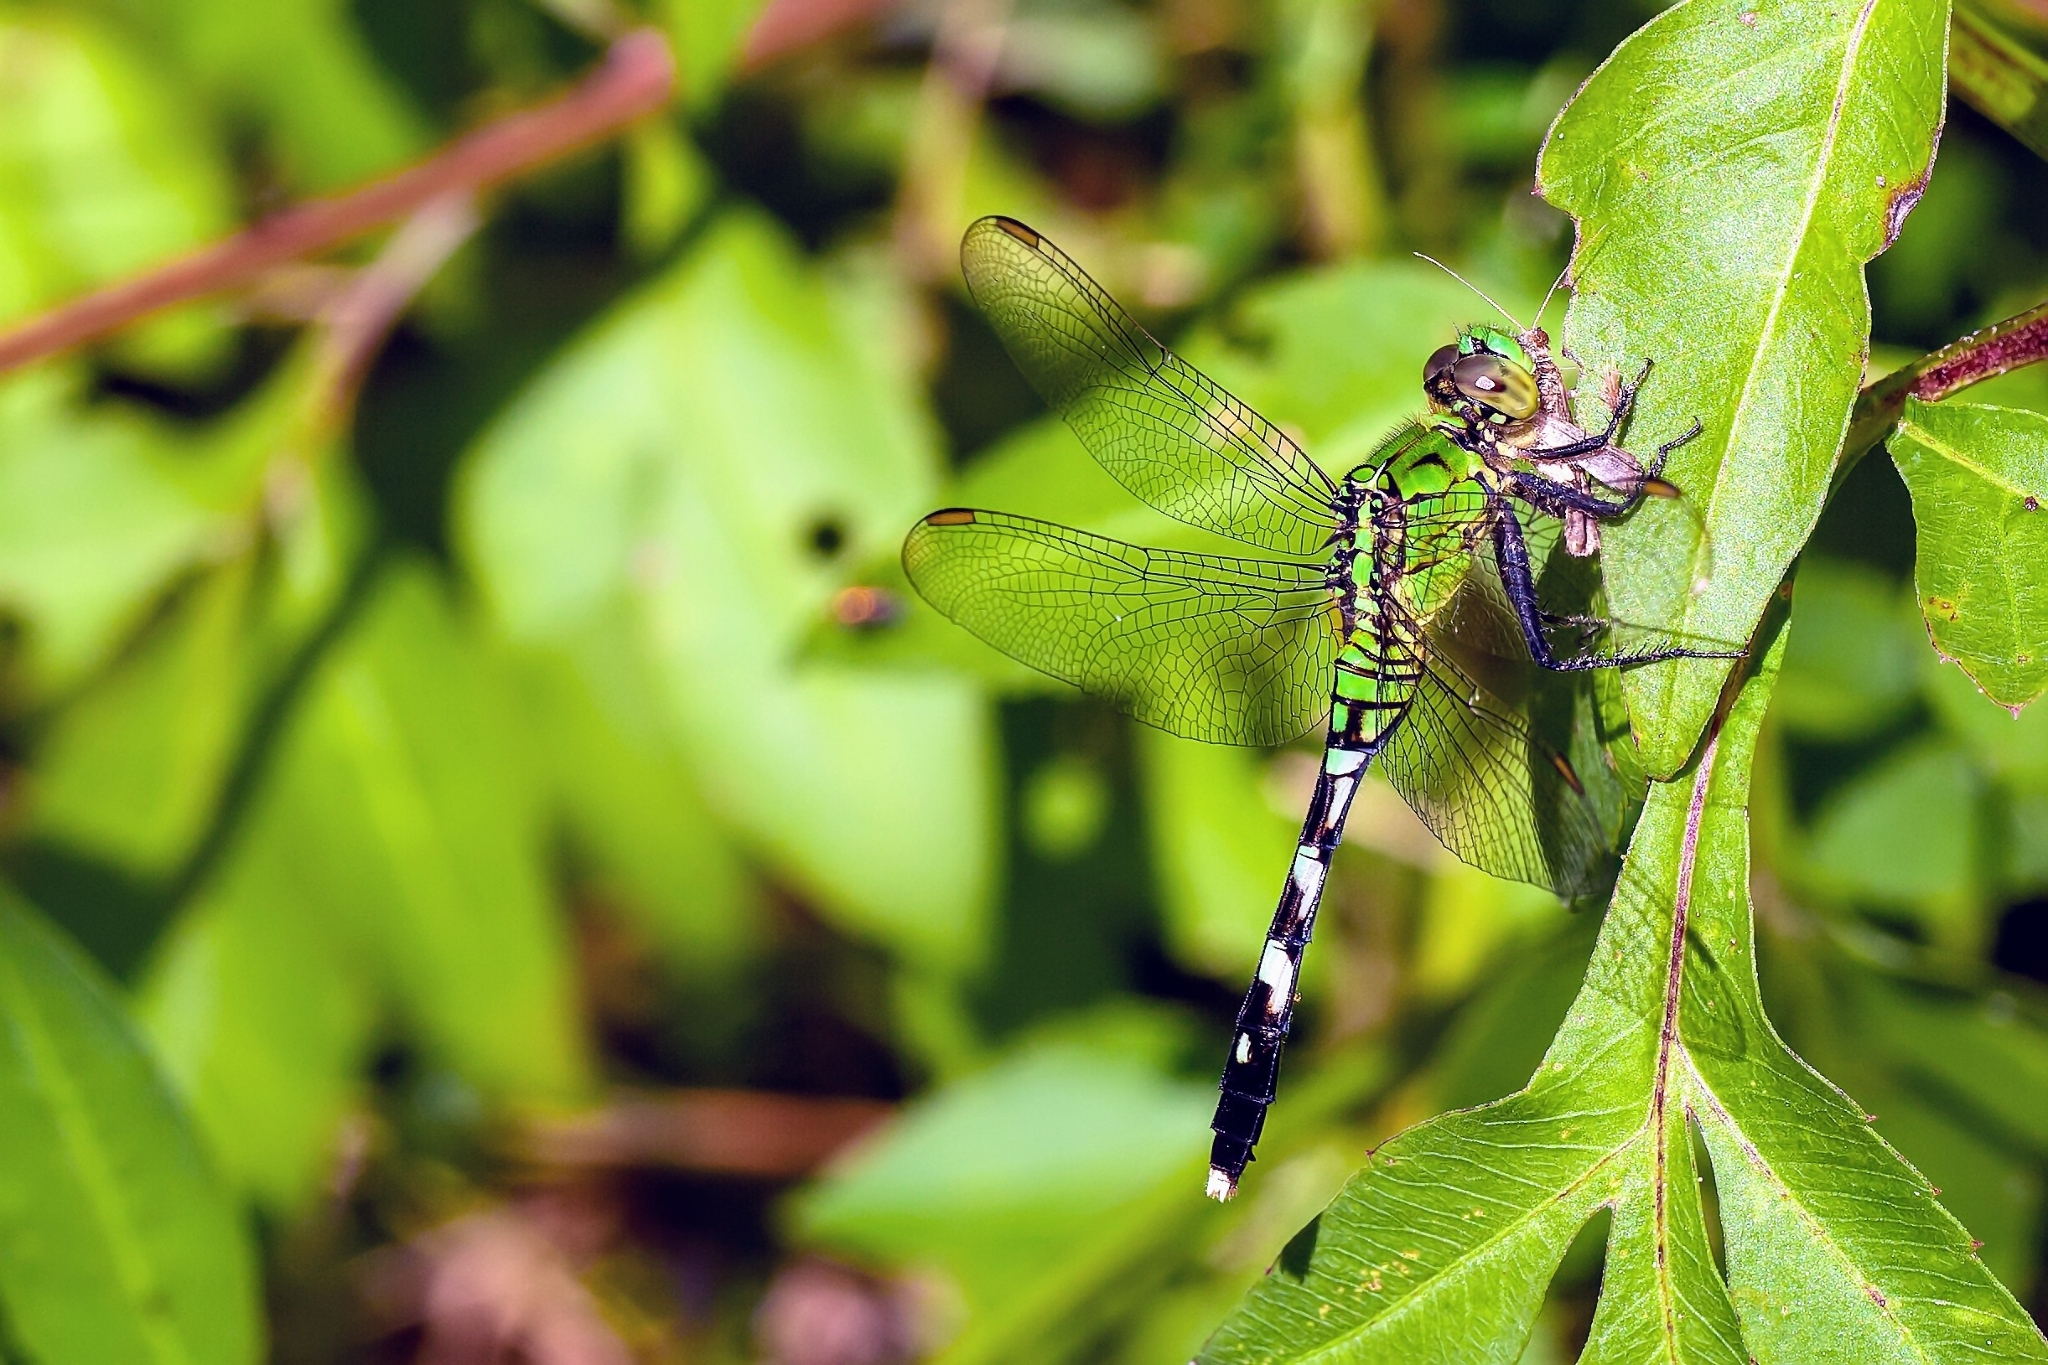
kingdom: Animalia
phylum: Arthropoda
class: Insecta
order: Odonata
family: Libellulidae
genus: Erythemis
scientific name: Erythemis simplicicollis
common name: Eastern pondhawk
